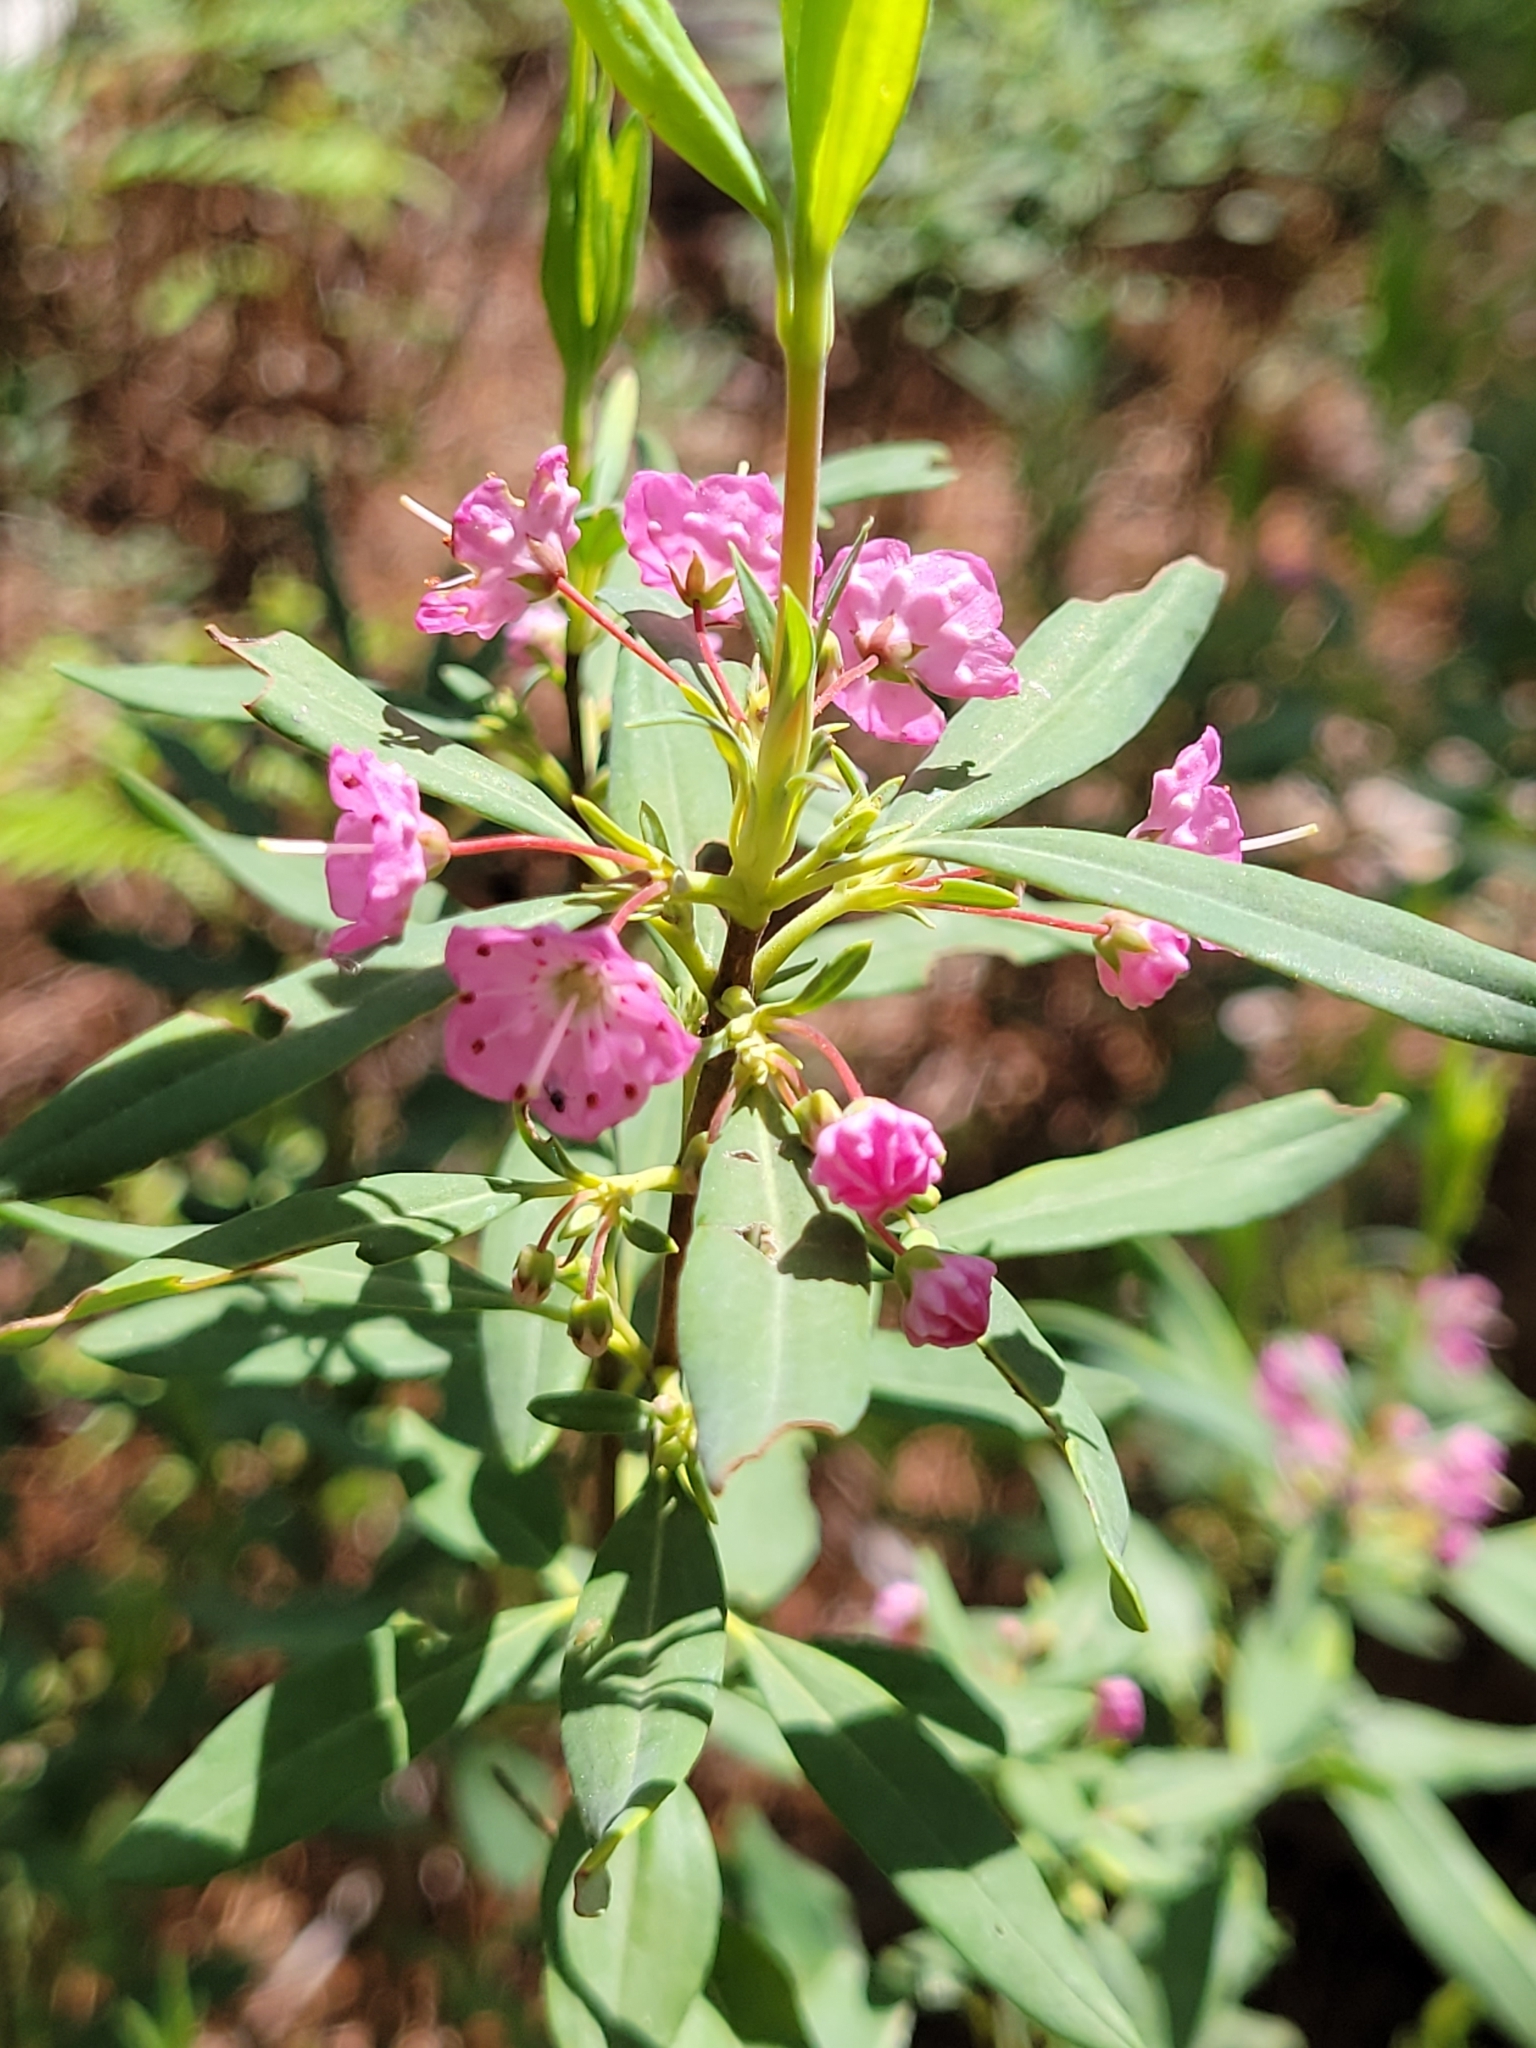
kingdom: Plantae
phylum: Tracheophyta
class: Magnoliopsida
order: Ericales
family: Ericaceae
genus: Kalmia
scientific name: Kalmia angustifolia
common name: Sheep-laurel
